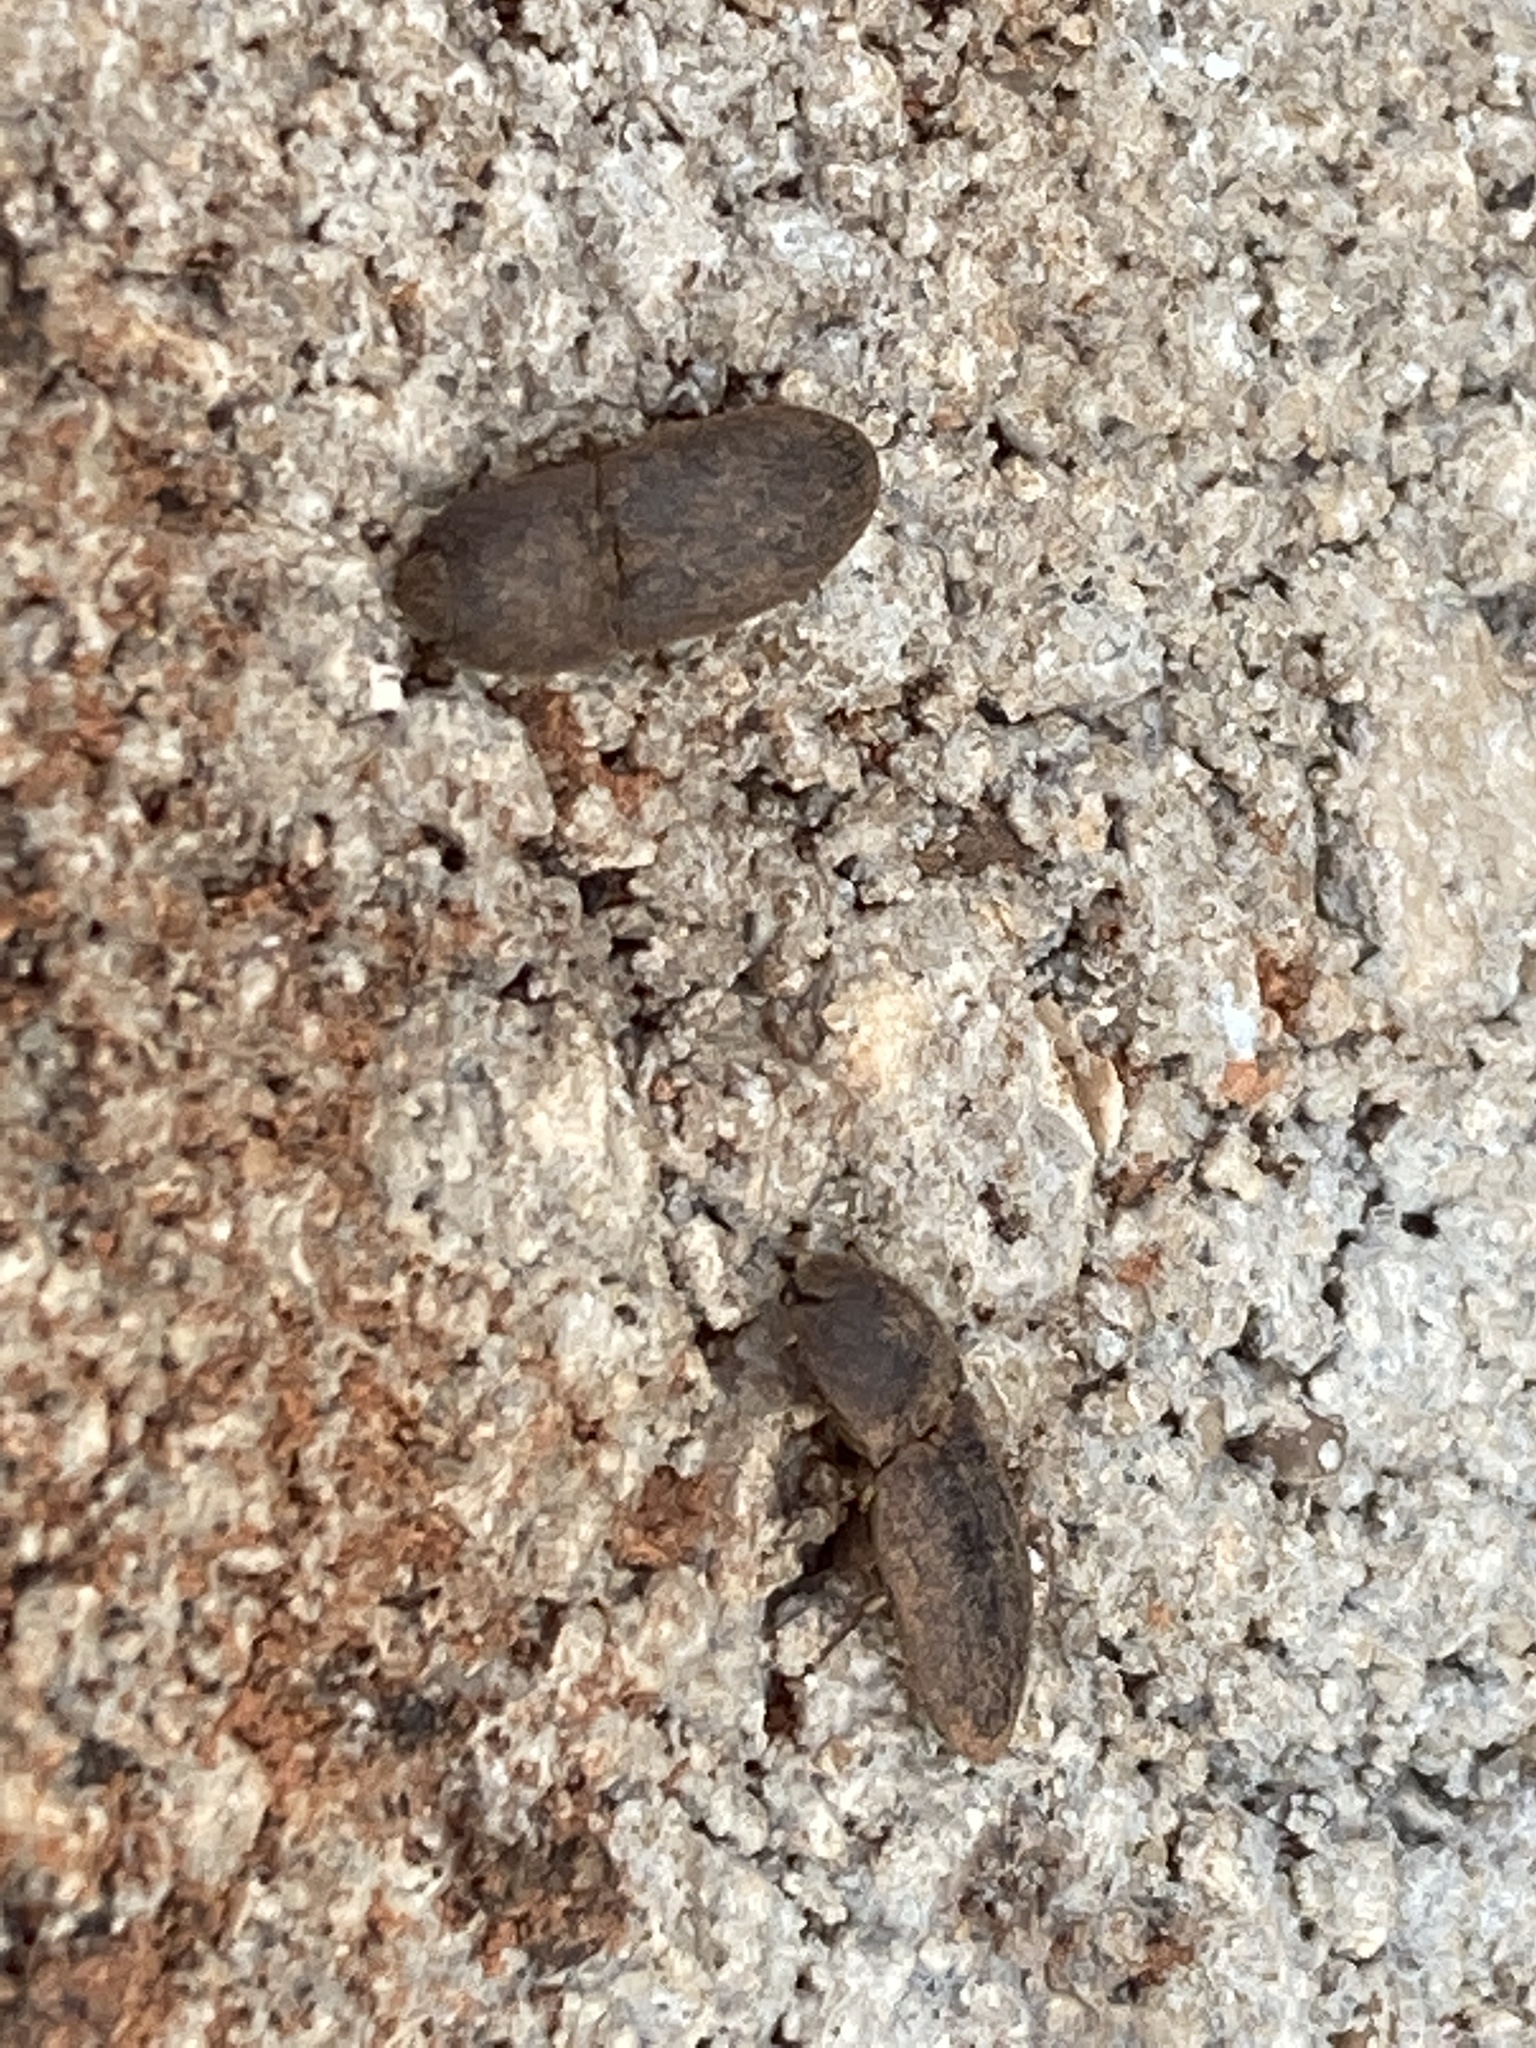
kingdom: Animalia
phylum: Arthropoda
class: Insecta
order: Coleoptera
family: Elateridae
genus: Agrypnus
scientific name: Agrypnus rectangularis
